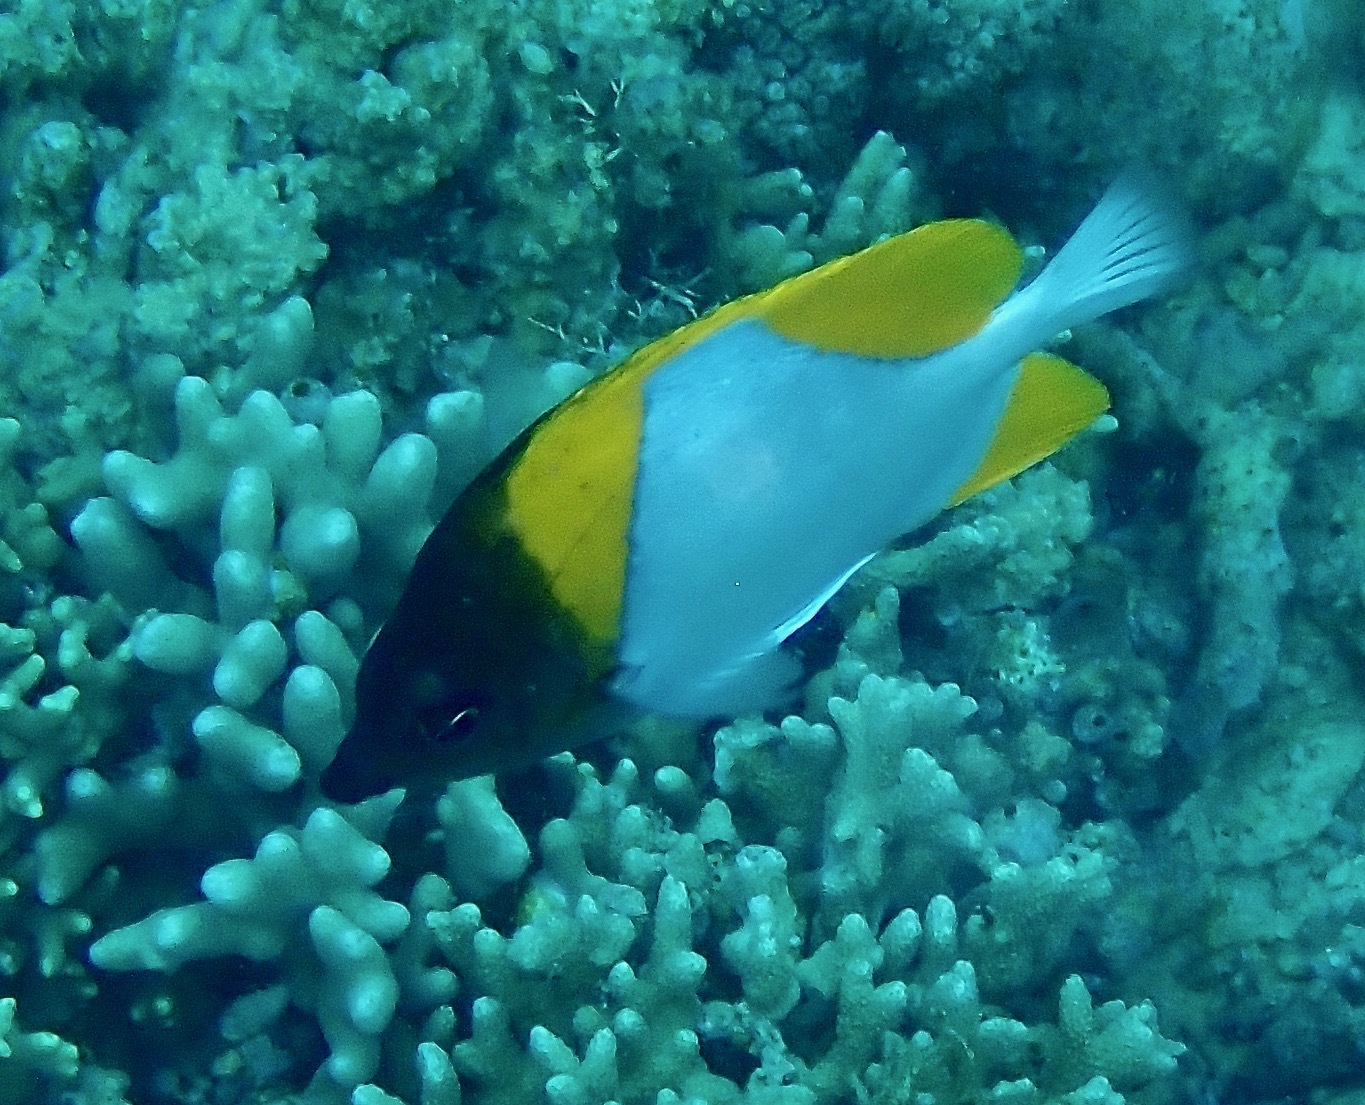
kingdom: Animalia
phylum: Chordata
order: Perciformes
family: Chaetodontidae
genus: Hemitaurichthys
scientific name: Hemitaurichthys polylepis
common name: Brushytoothed butterflyfish
